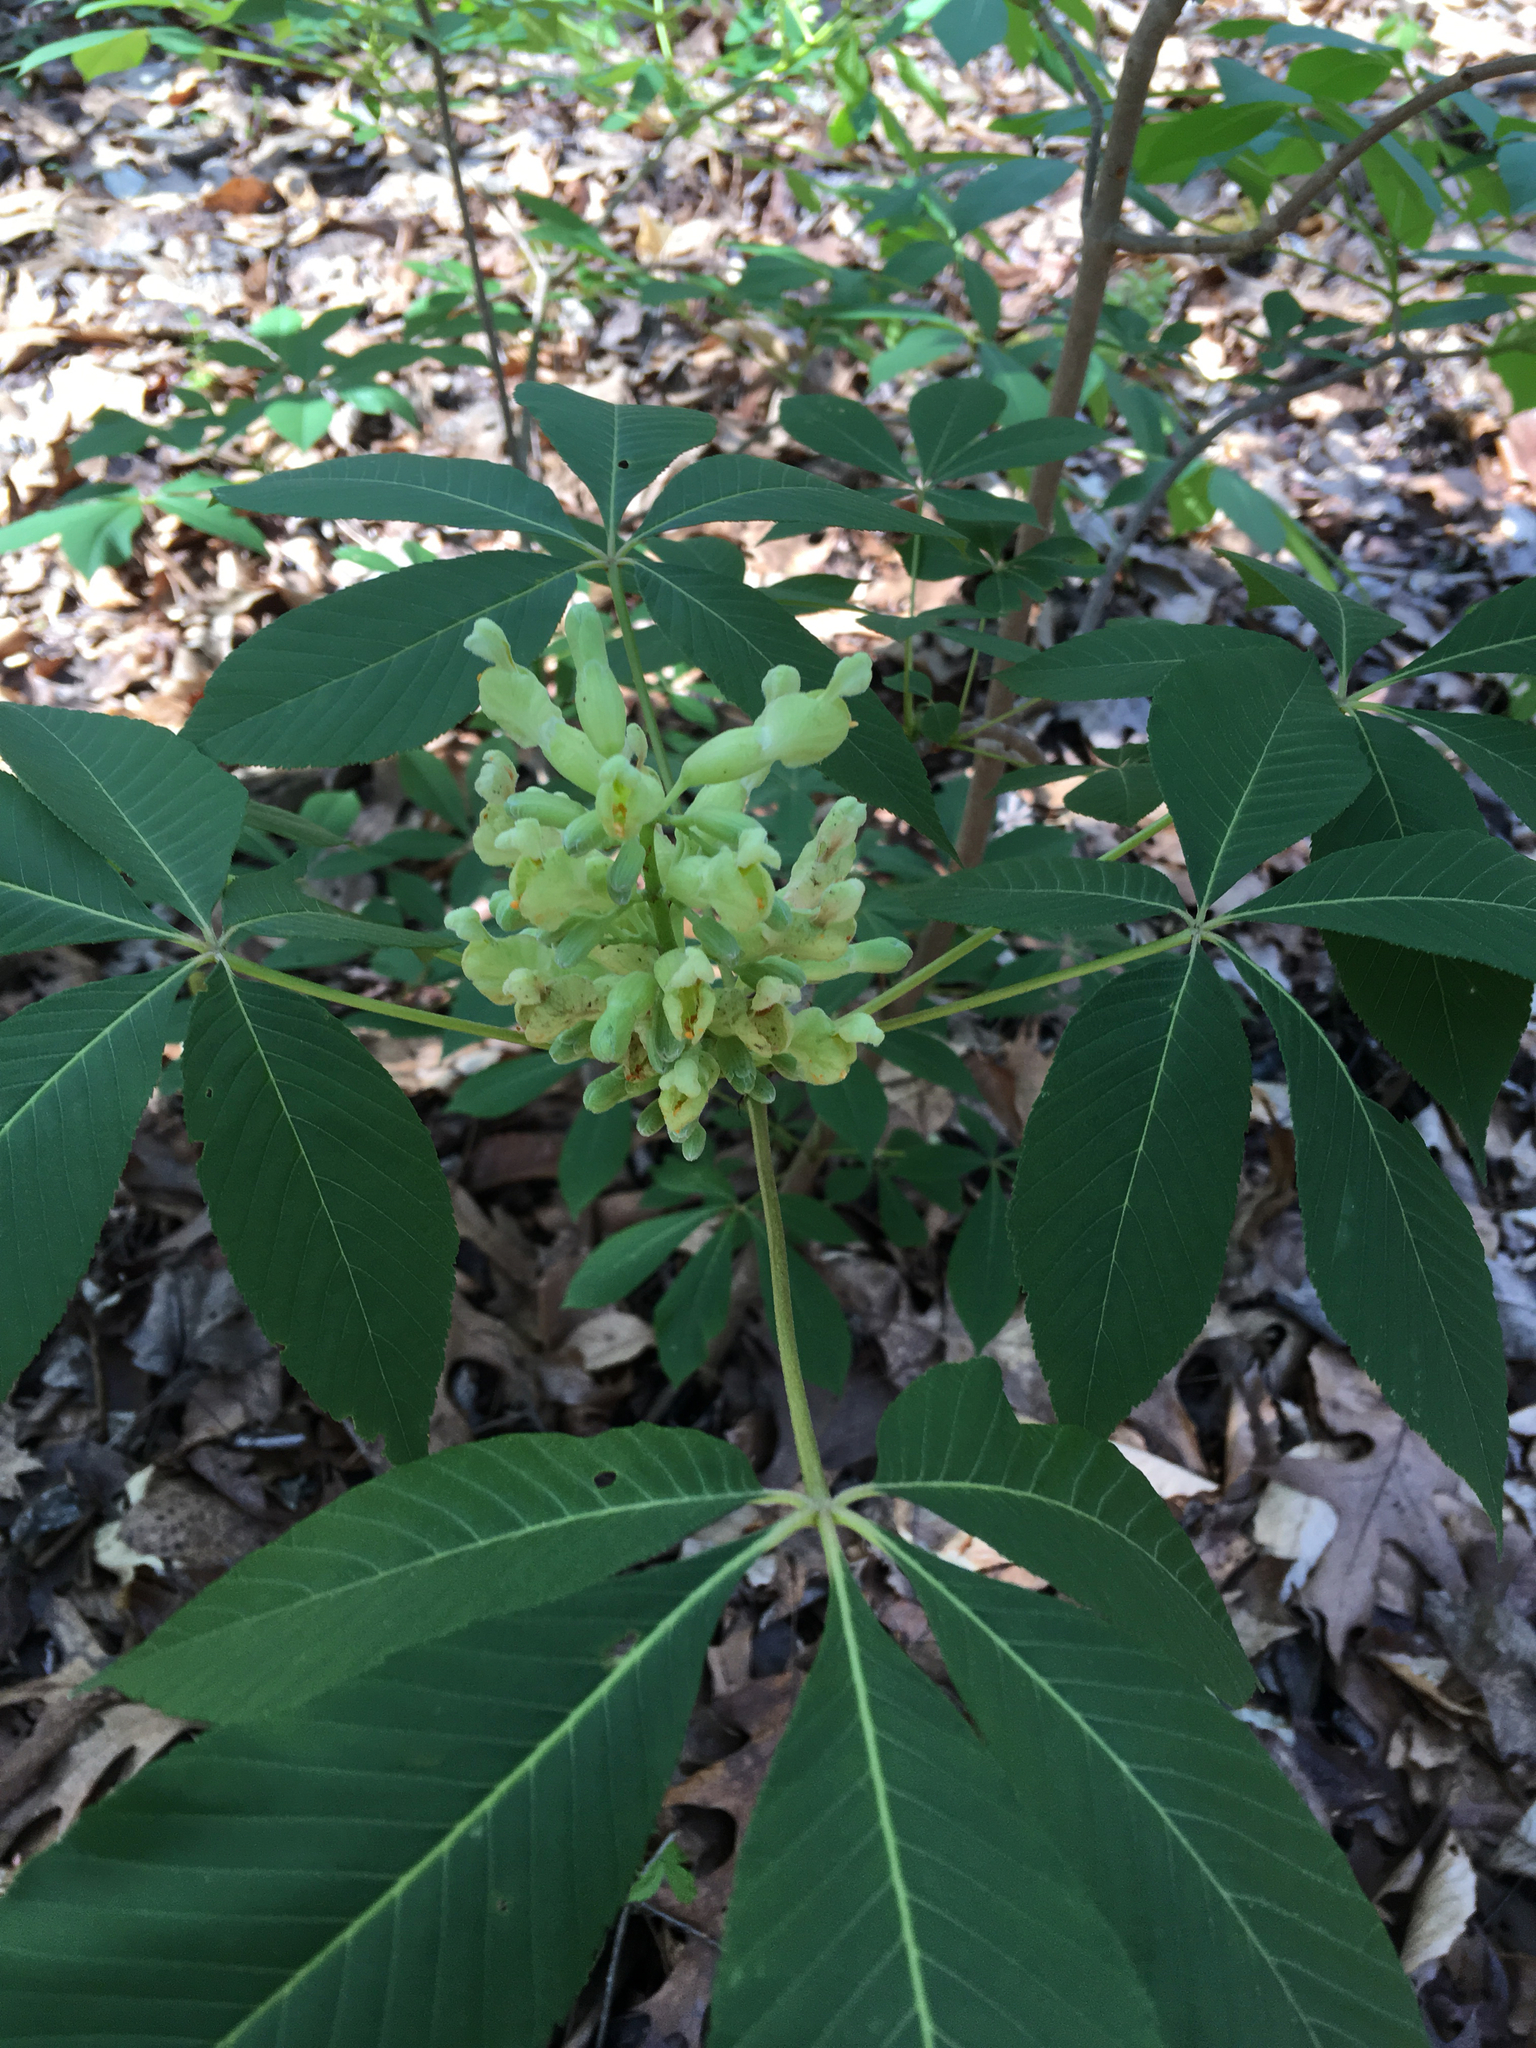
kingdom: Plantae
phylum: Tracheophyta
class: Magnoliopsida
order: Sapindales
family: Sapindaceae
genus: Aesculus
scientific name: Aesculus sylvatica
